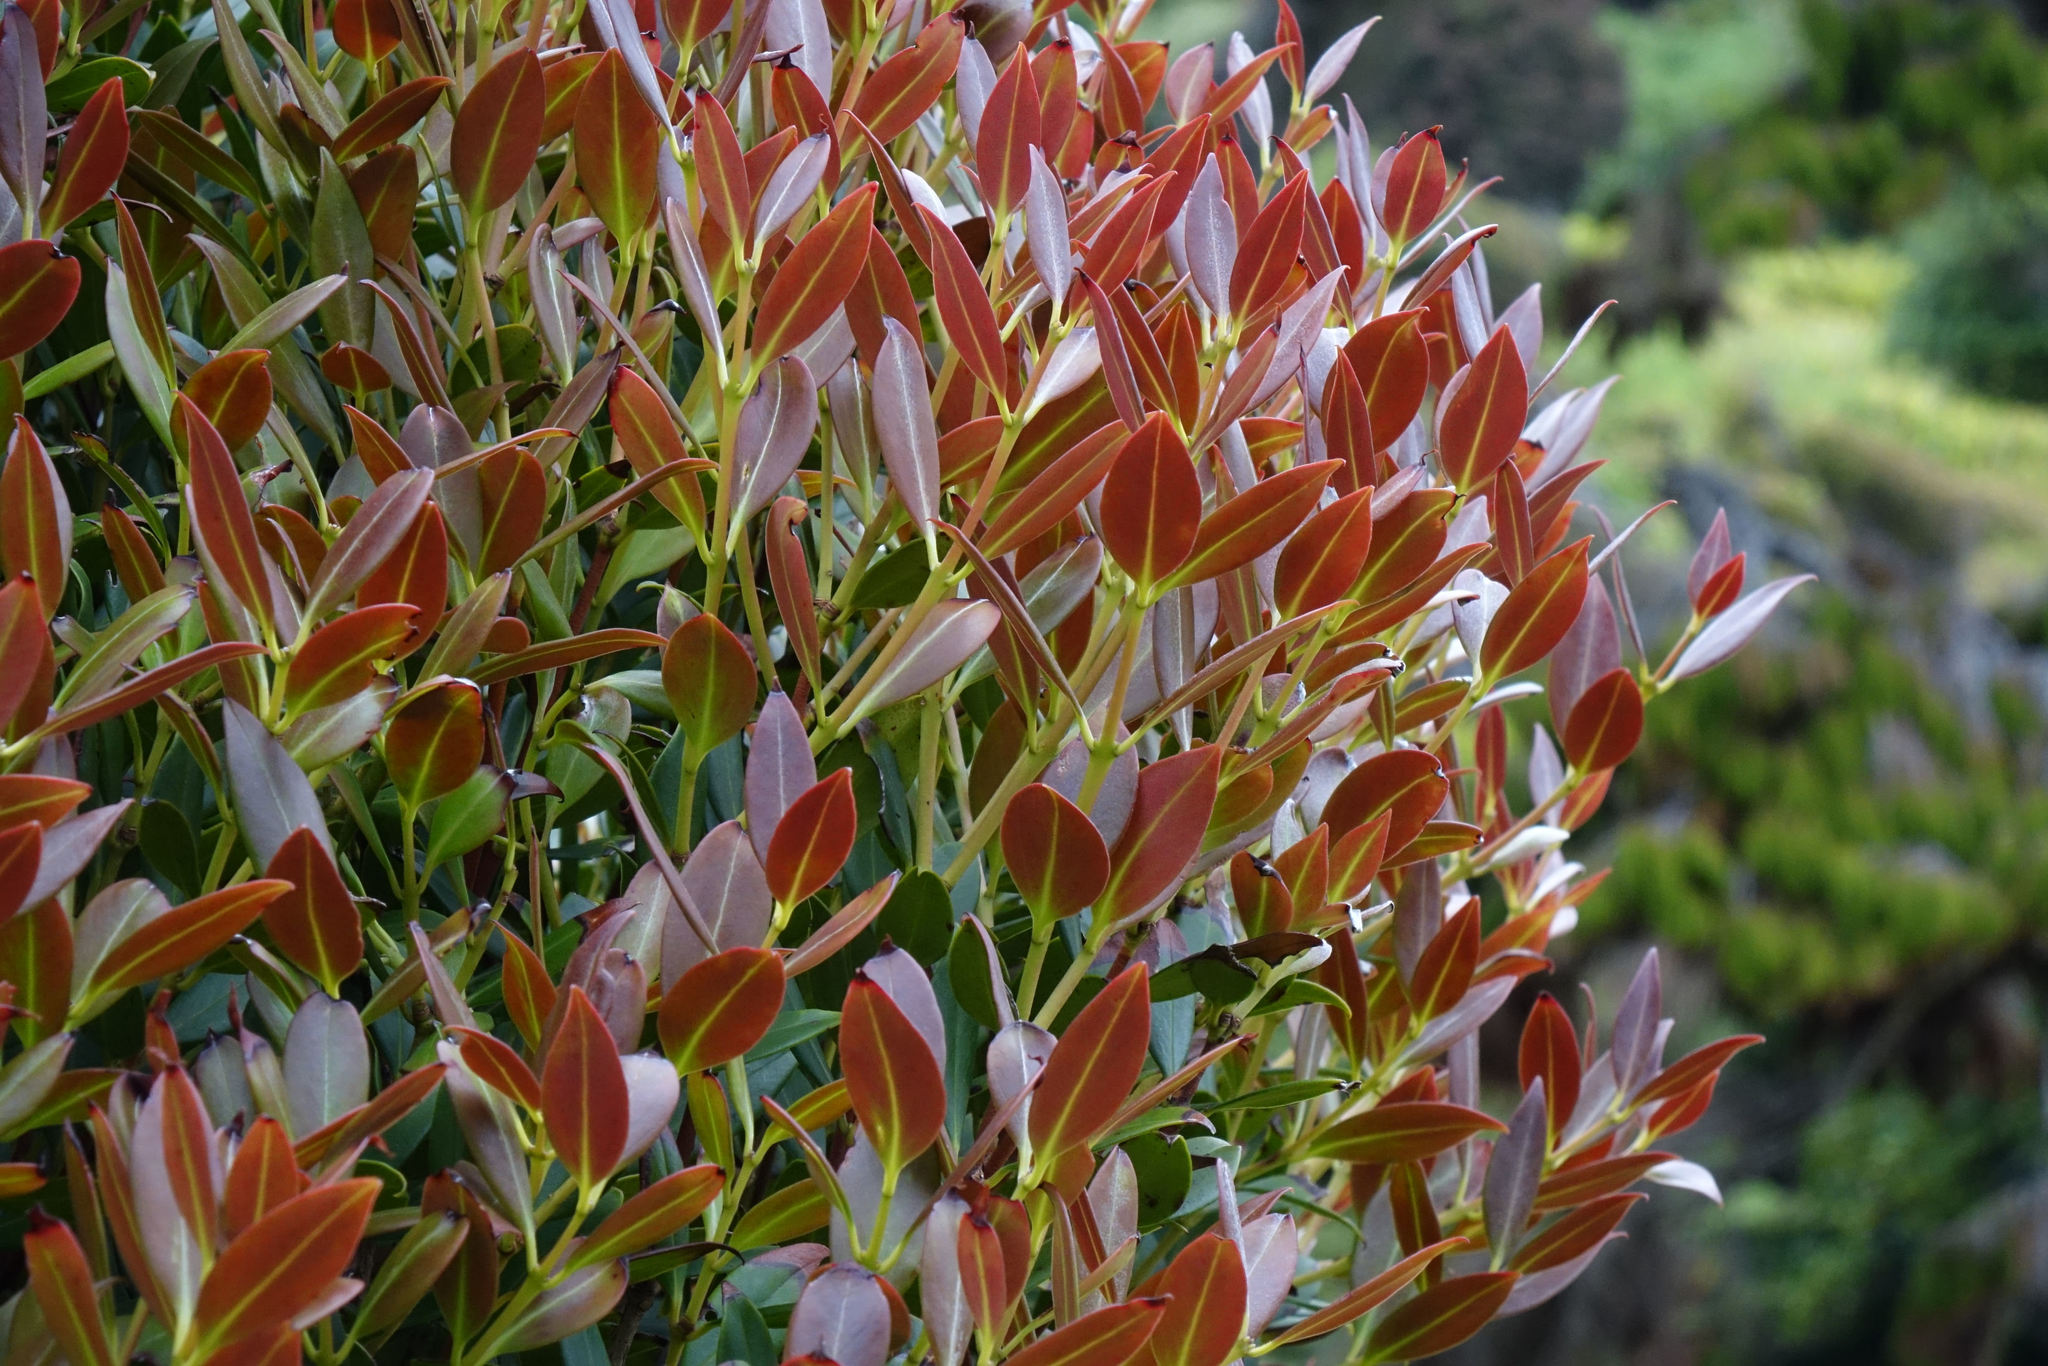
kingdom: Plantae
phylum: Tracheophyta
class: Magnoliopsida
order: Myrtales
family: Myrtaceae
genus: Metrosideros
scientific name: Metrosideros umbellata
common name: Southern rata
